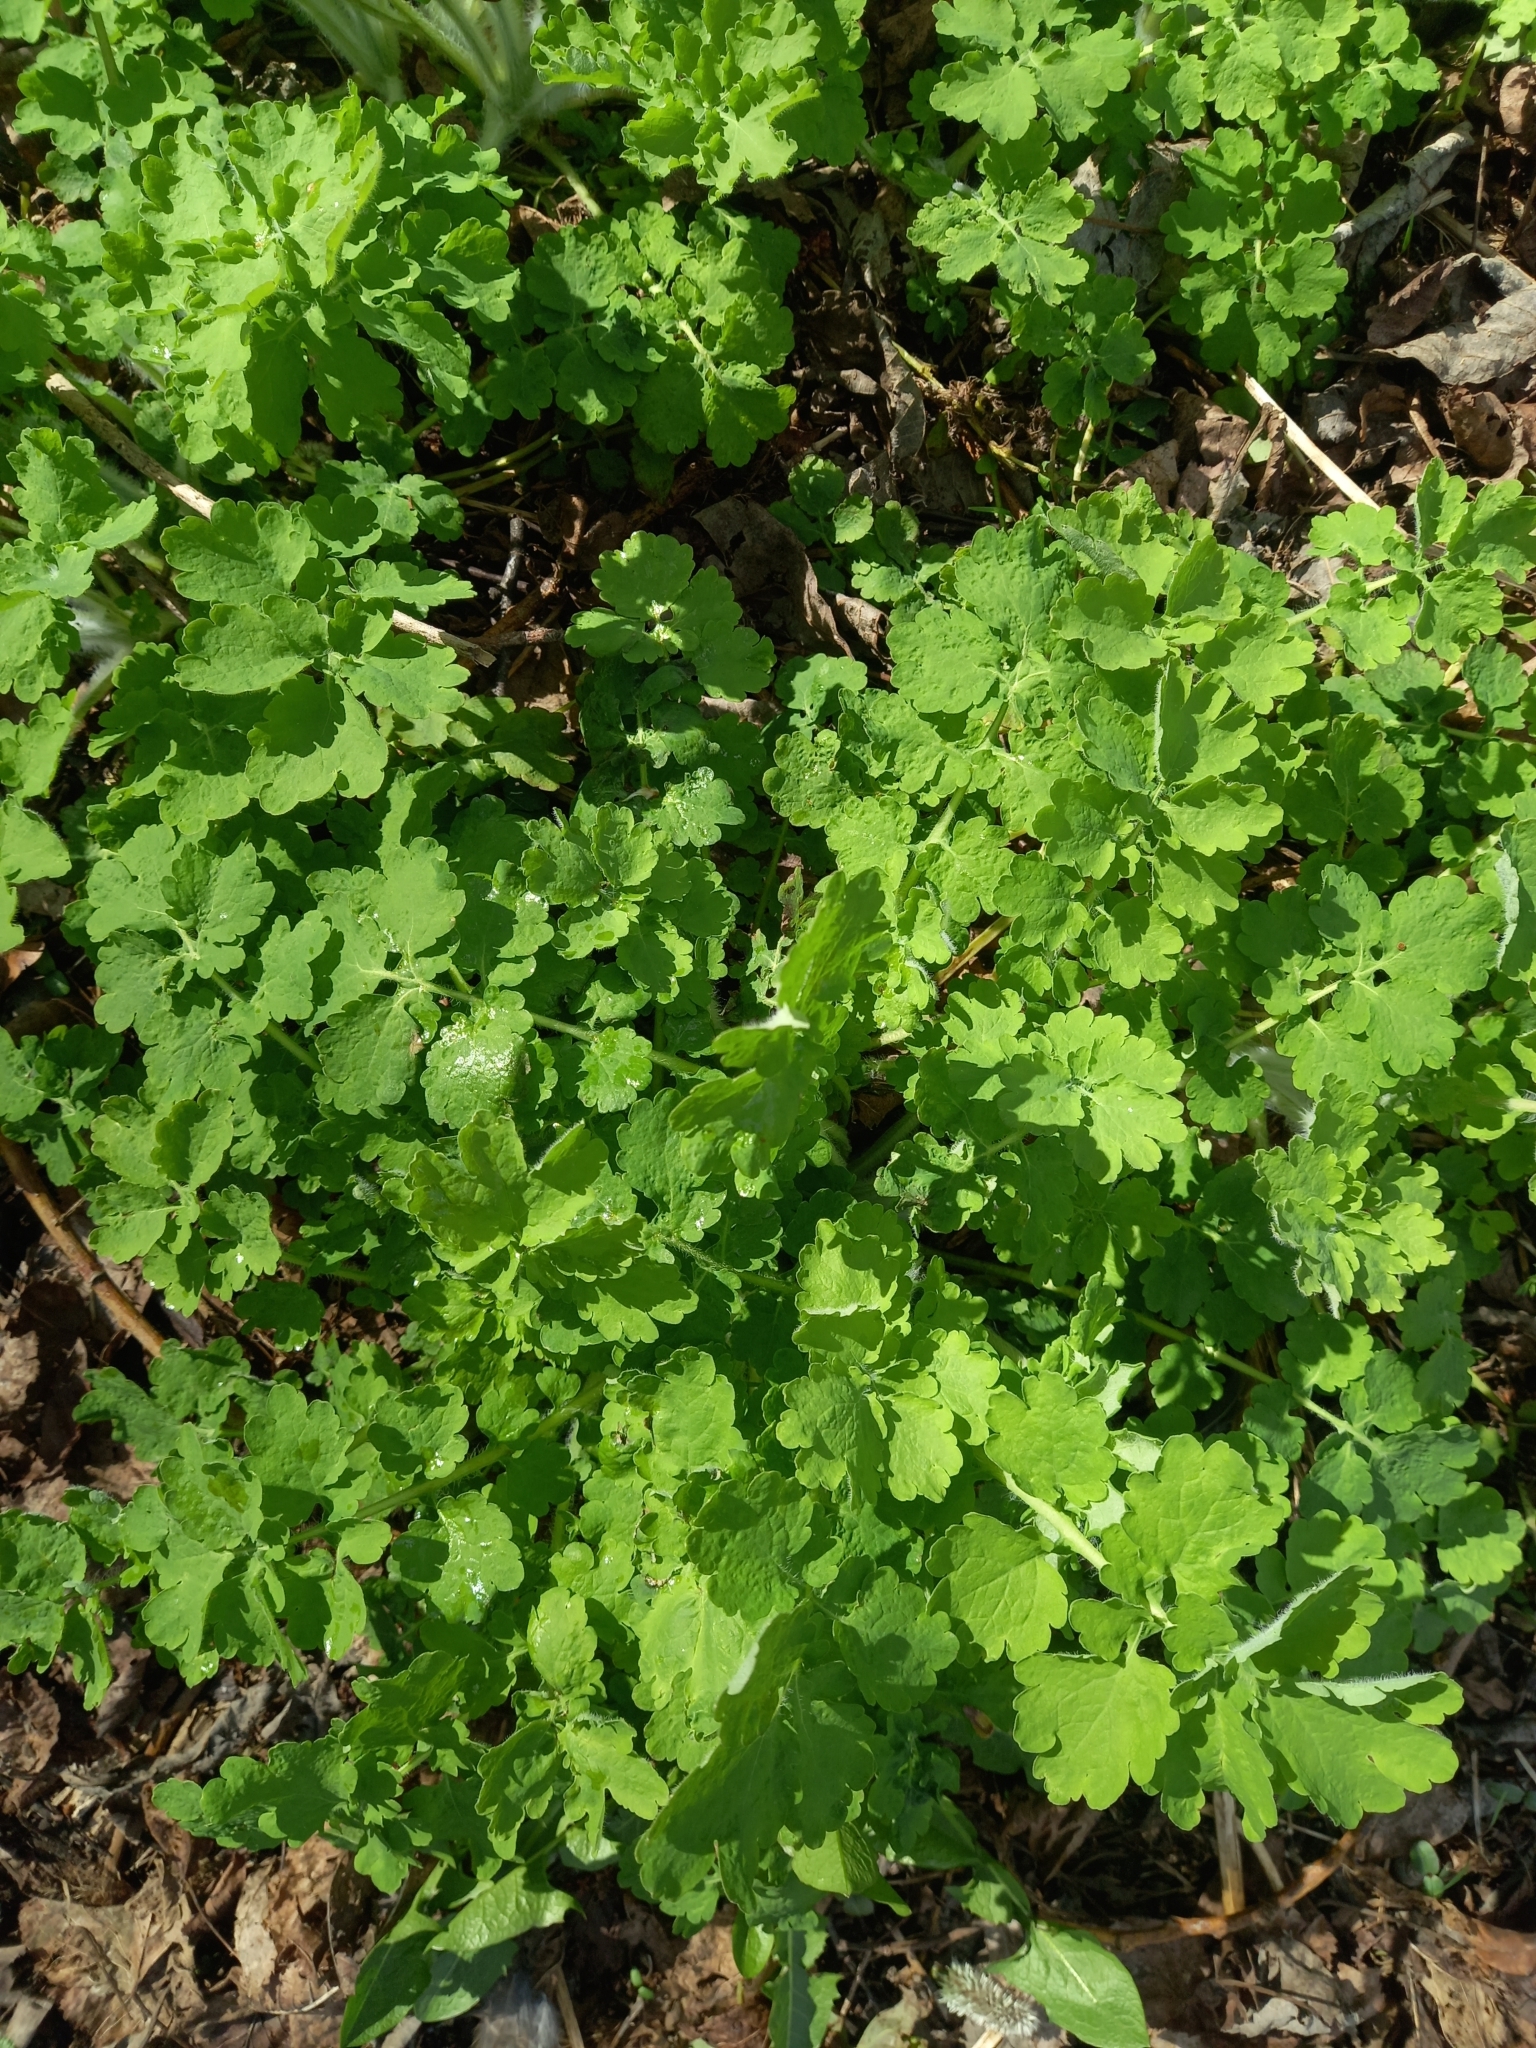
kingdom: Plantae
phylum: Tracheophyta
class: Magnoliopsida
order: Ranunculales
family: Papaveraceae
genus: Chelidonium
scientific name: Chelidonium majus
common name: Greater celandine
